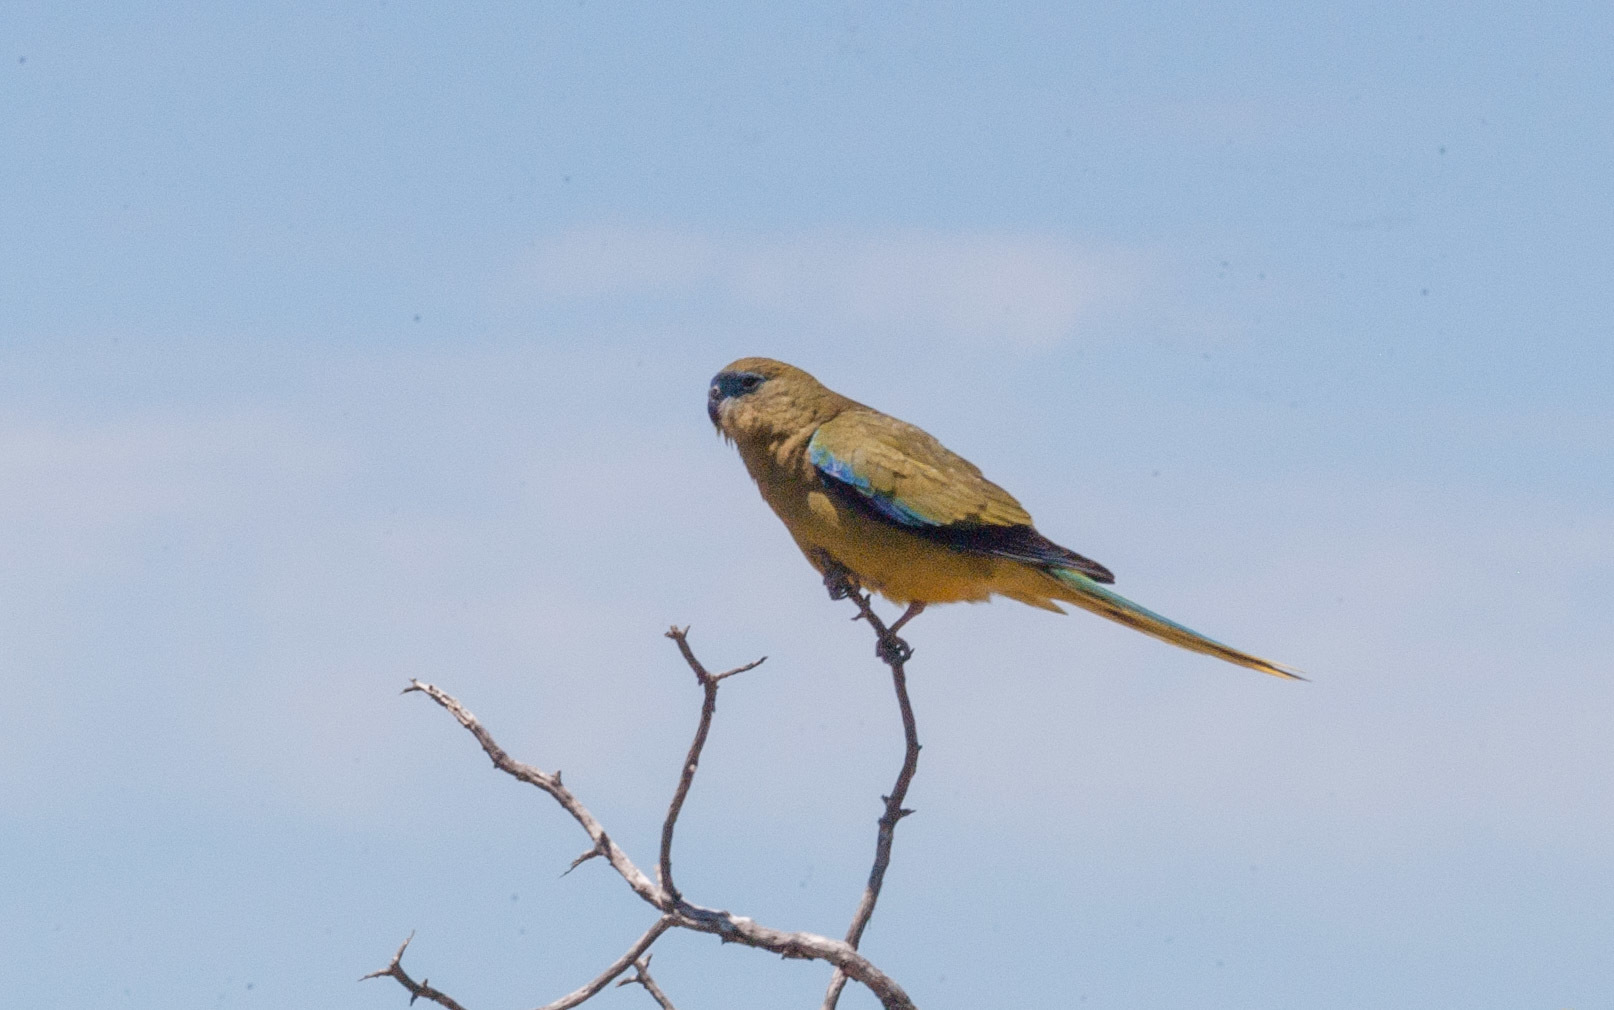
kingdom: Animalia
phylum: Chordata
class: Aves
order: Psittaciformes
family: Psittacidae
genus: Neophema
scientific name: Neophema petrophila
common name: Rock parrot
